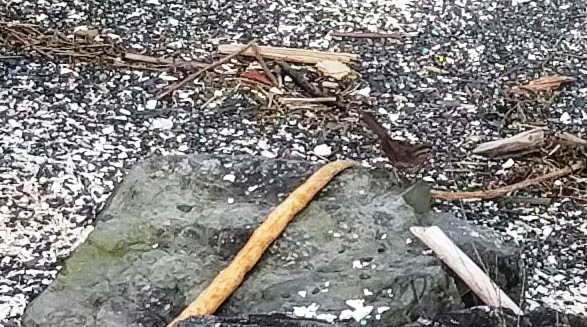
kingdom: Animalia
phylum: Chordata
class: Aves
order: Passeriformes
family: Passerellidae
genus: Melospiza
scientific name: Melospiza melodia
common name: Song sparrow
